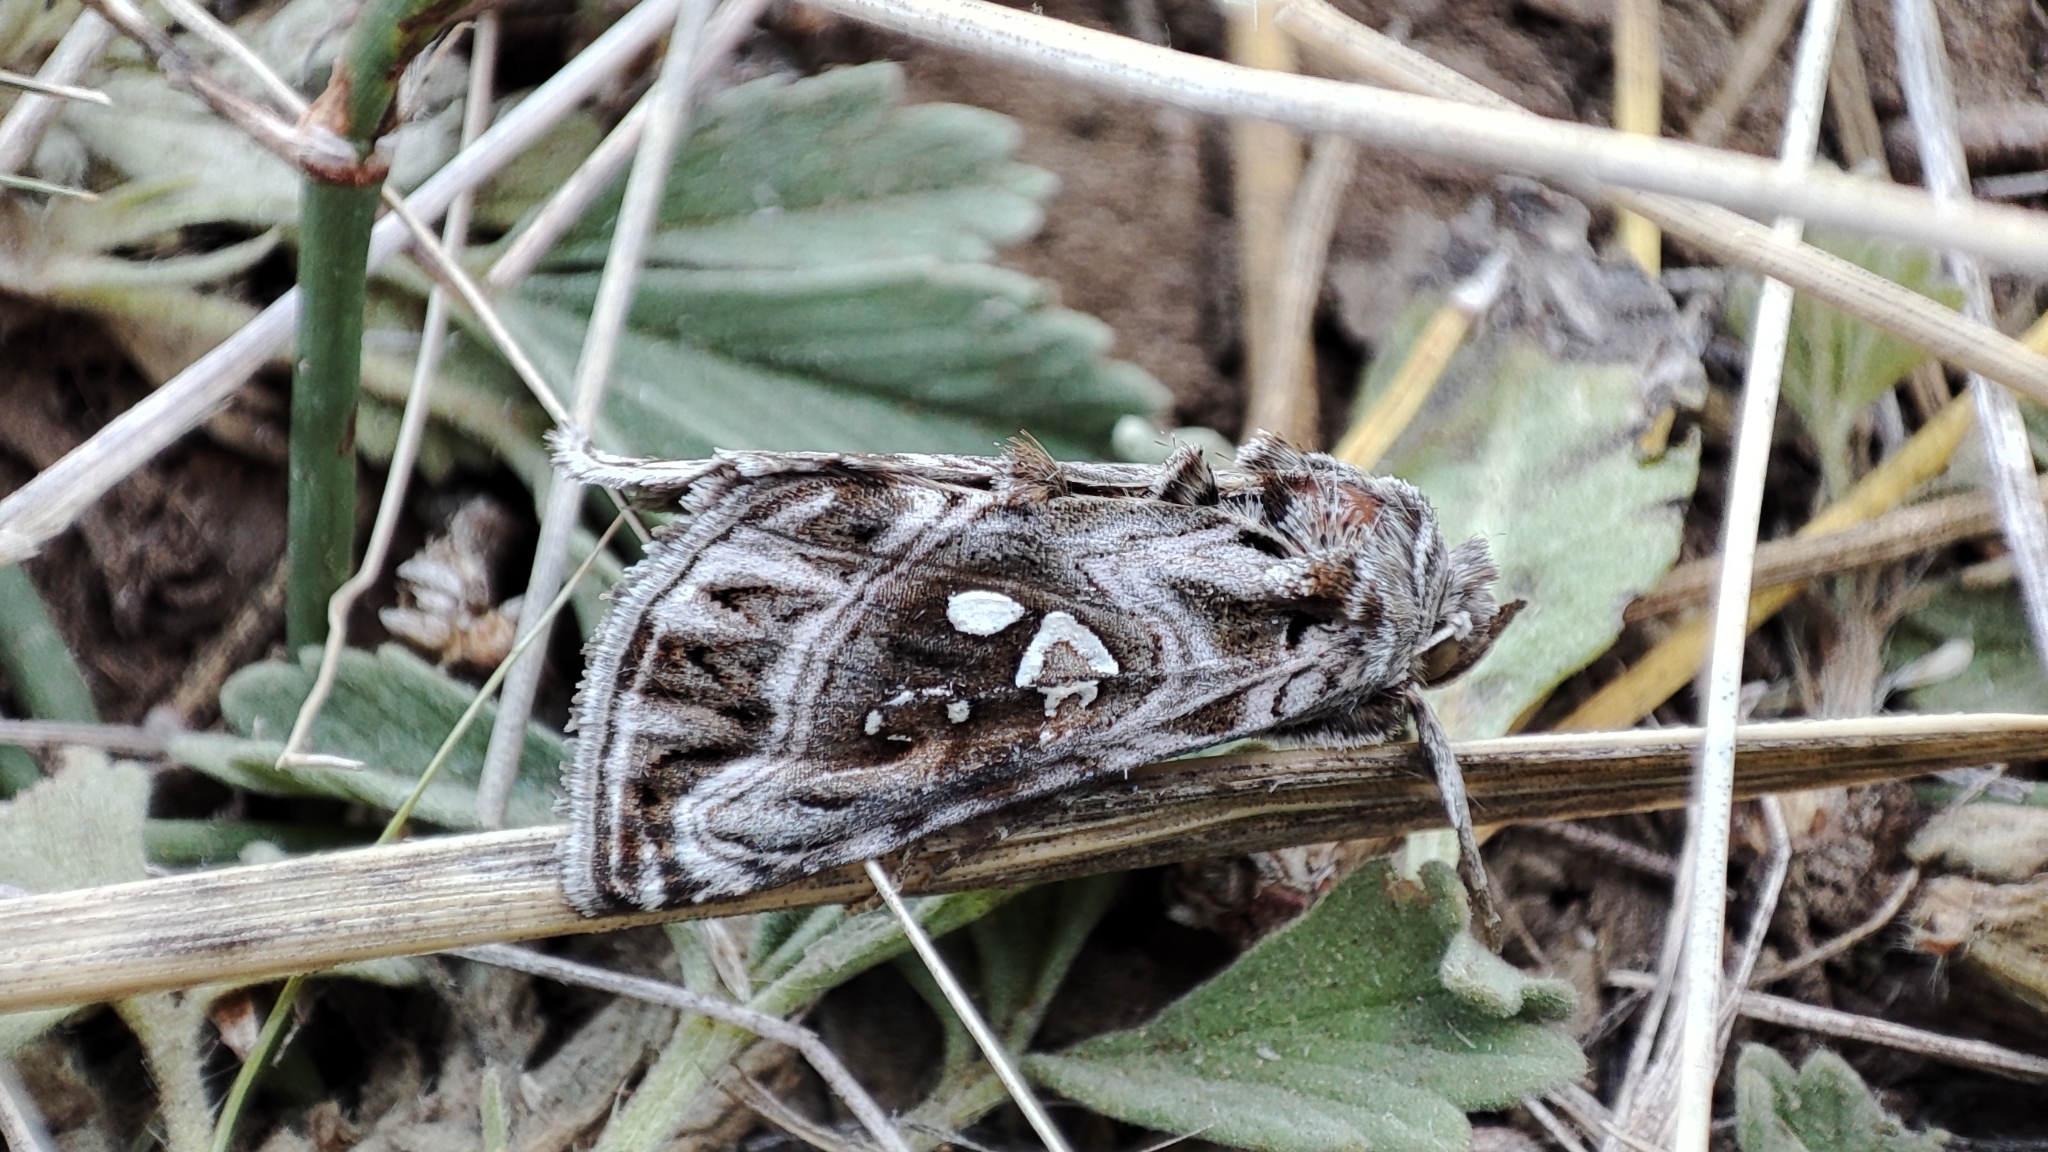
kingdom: Animalia
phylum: Arthropoda
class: Insecta
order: Lepidoptera
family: Noctuidae
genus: Panchrysia
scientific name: Panchrysia ornata
